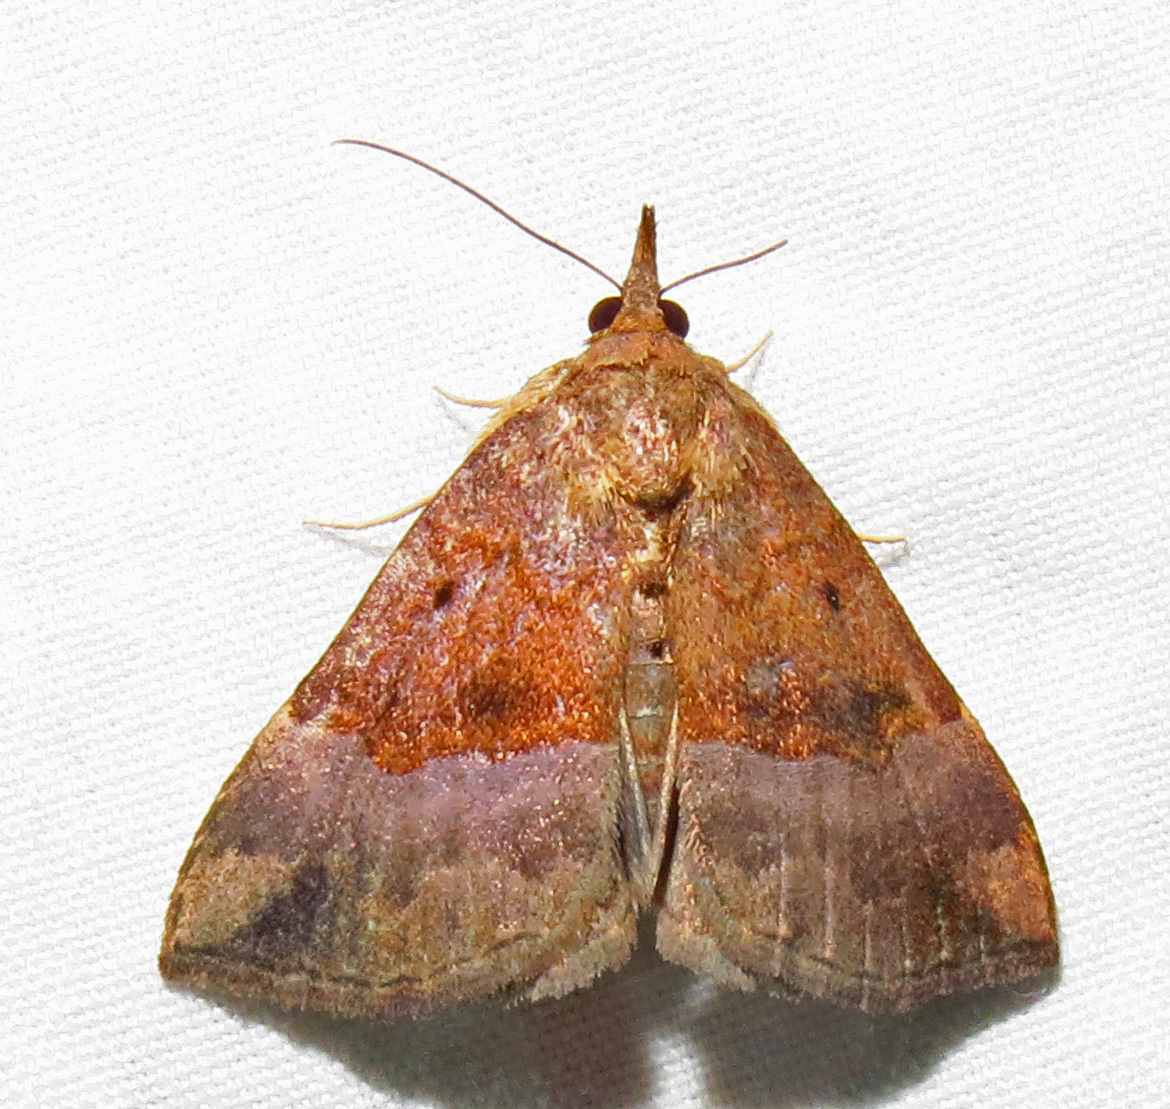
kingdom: Animalia
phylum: Arthropoda
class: Insecta
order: Lepidoptera
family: Erebidae
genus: Hypena
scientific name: Hypena madefactalis
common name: Gray-edged snout
